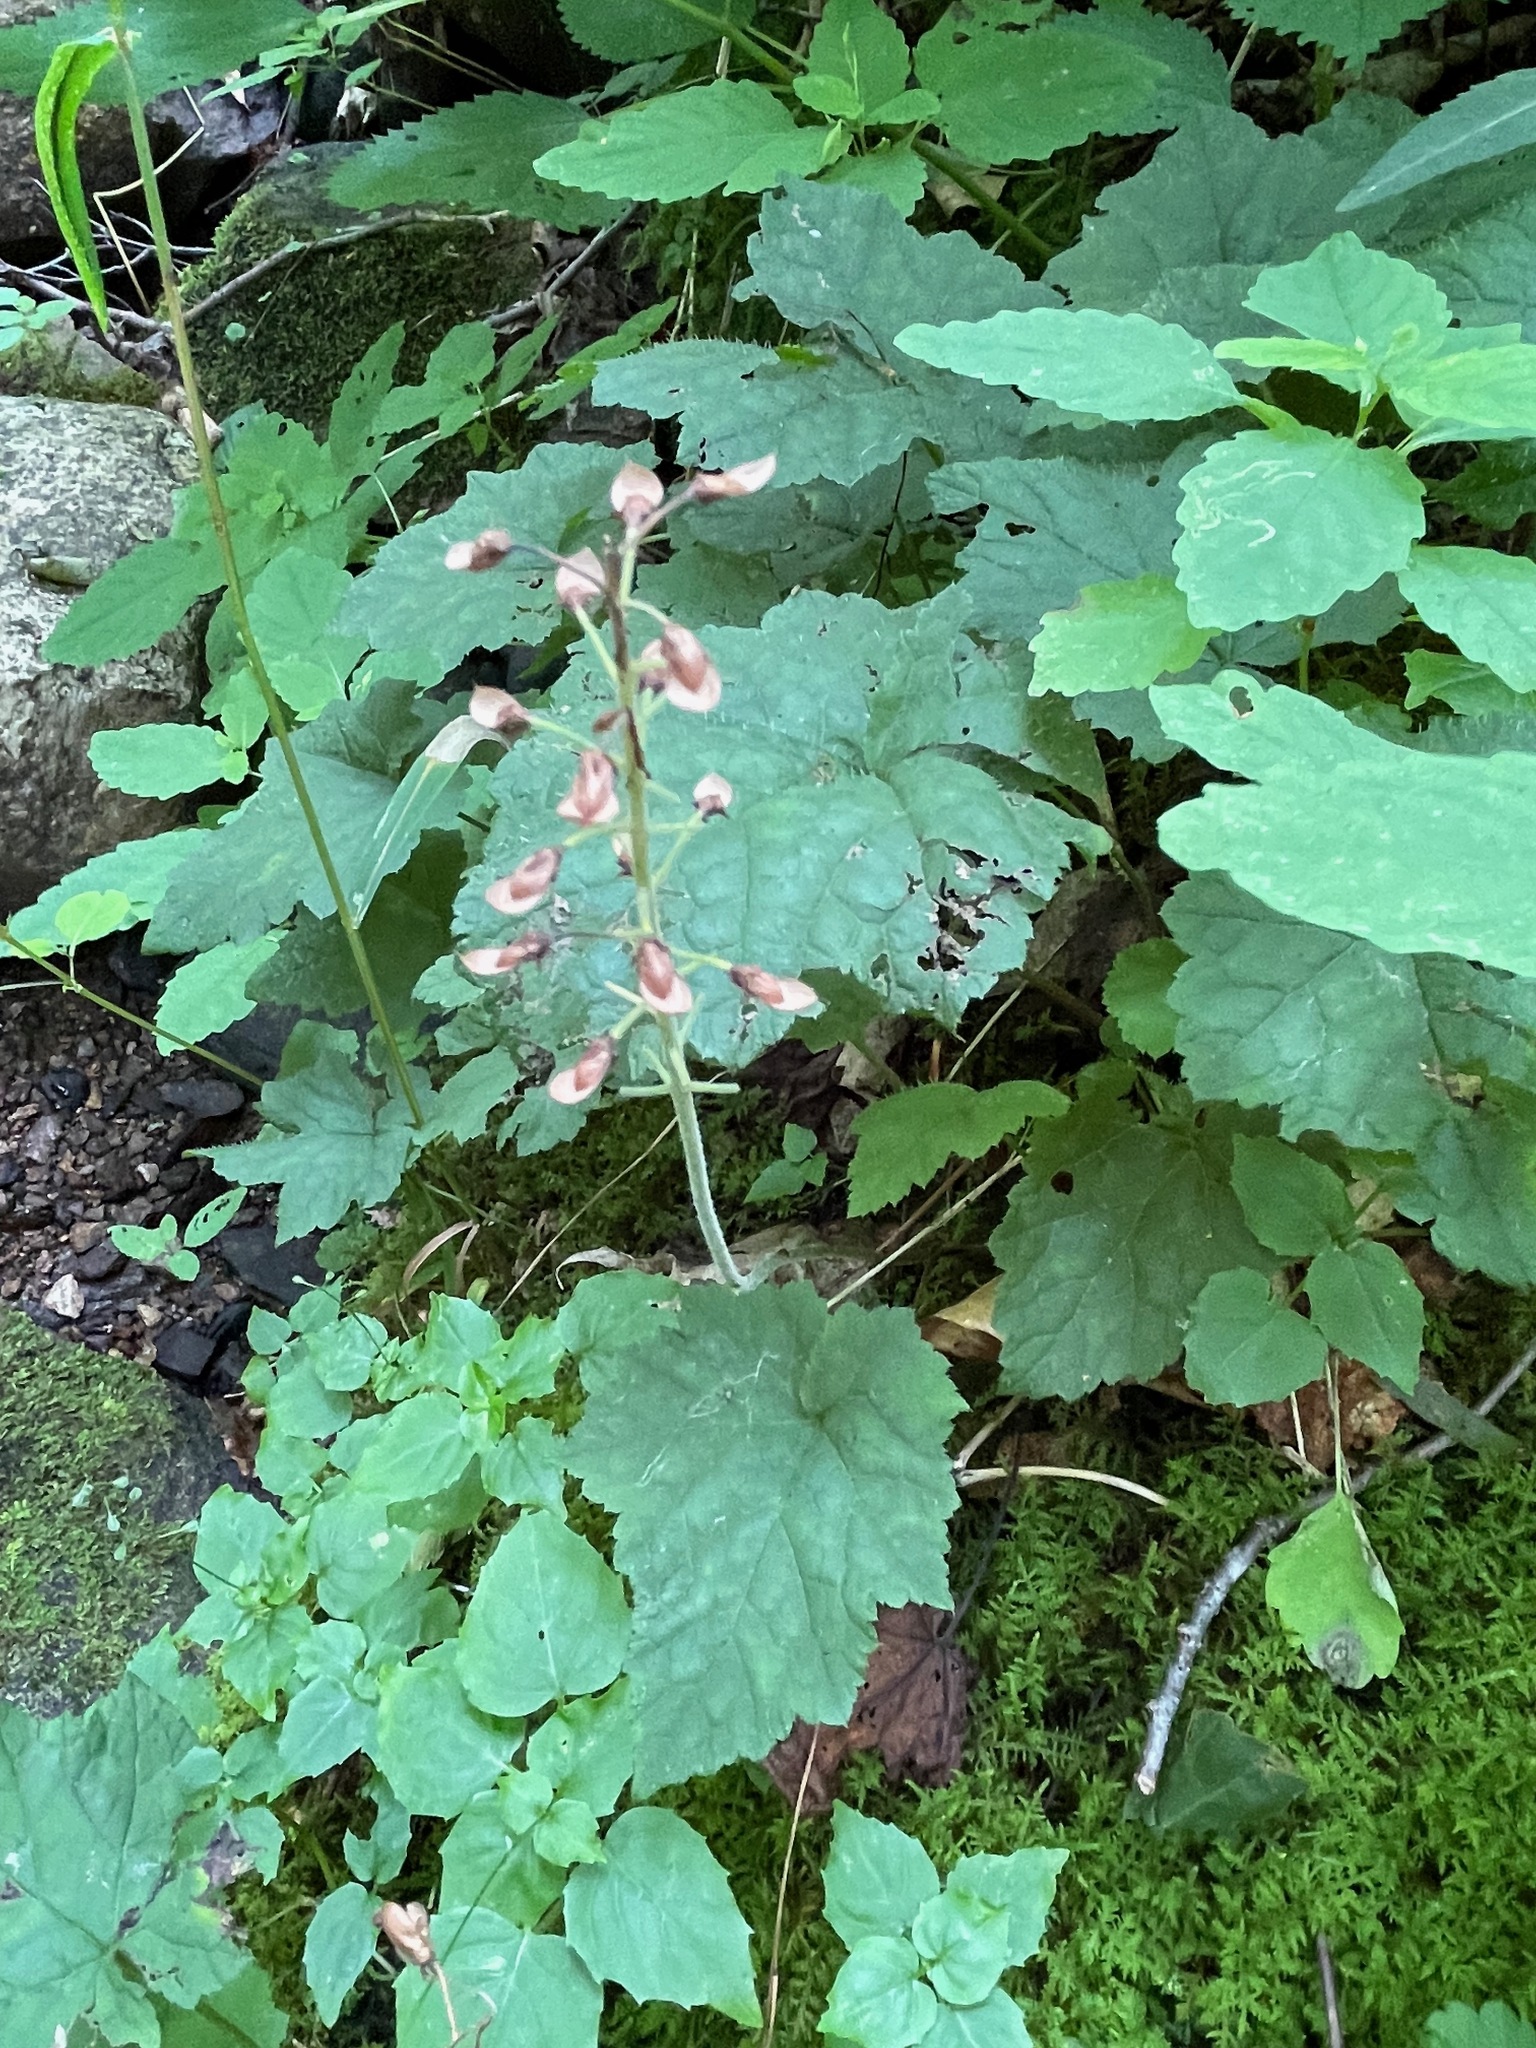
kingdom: Plantae
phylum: Tracheophyta
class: Magnoliopsida
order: Saxifragales
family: Saxifragaceae
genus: Tiarella
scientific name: Tiarella stolonifera
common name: Stoloniferous foamflower
